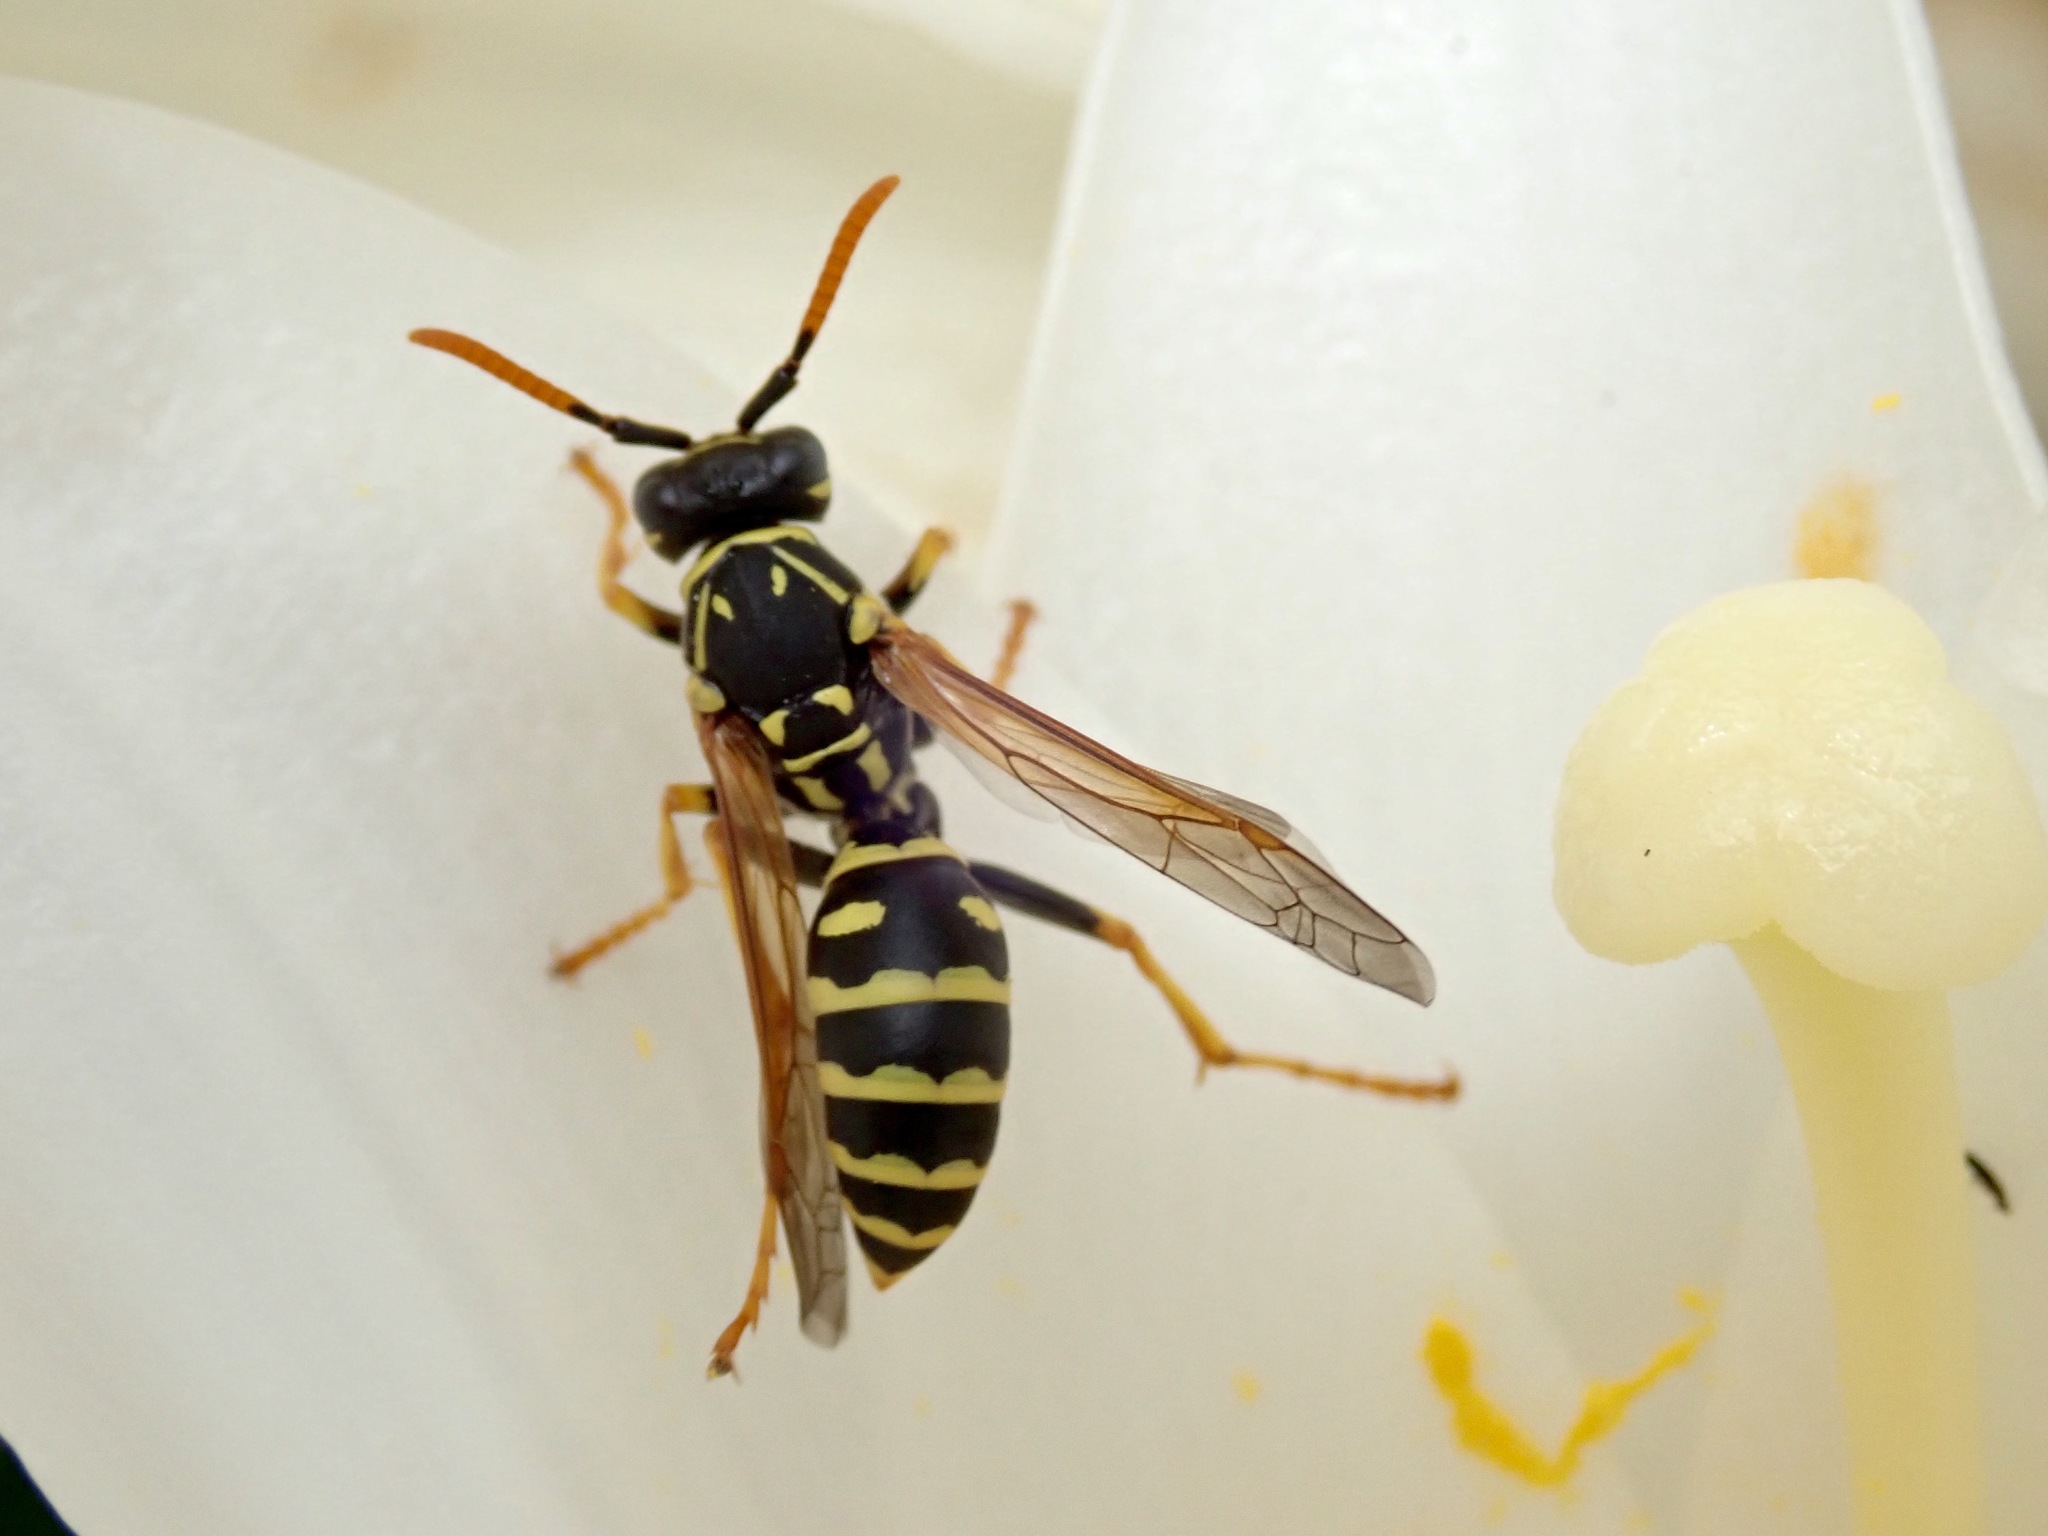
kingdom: Animalia
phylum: Arthropoda
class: Insecta
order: Hymenoptera
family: Eumenidae
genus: Polistes
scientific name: Polistes dominula
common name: Paper wasp
